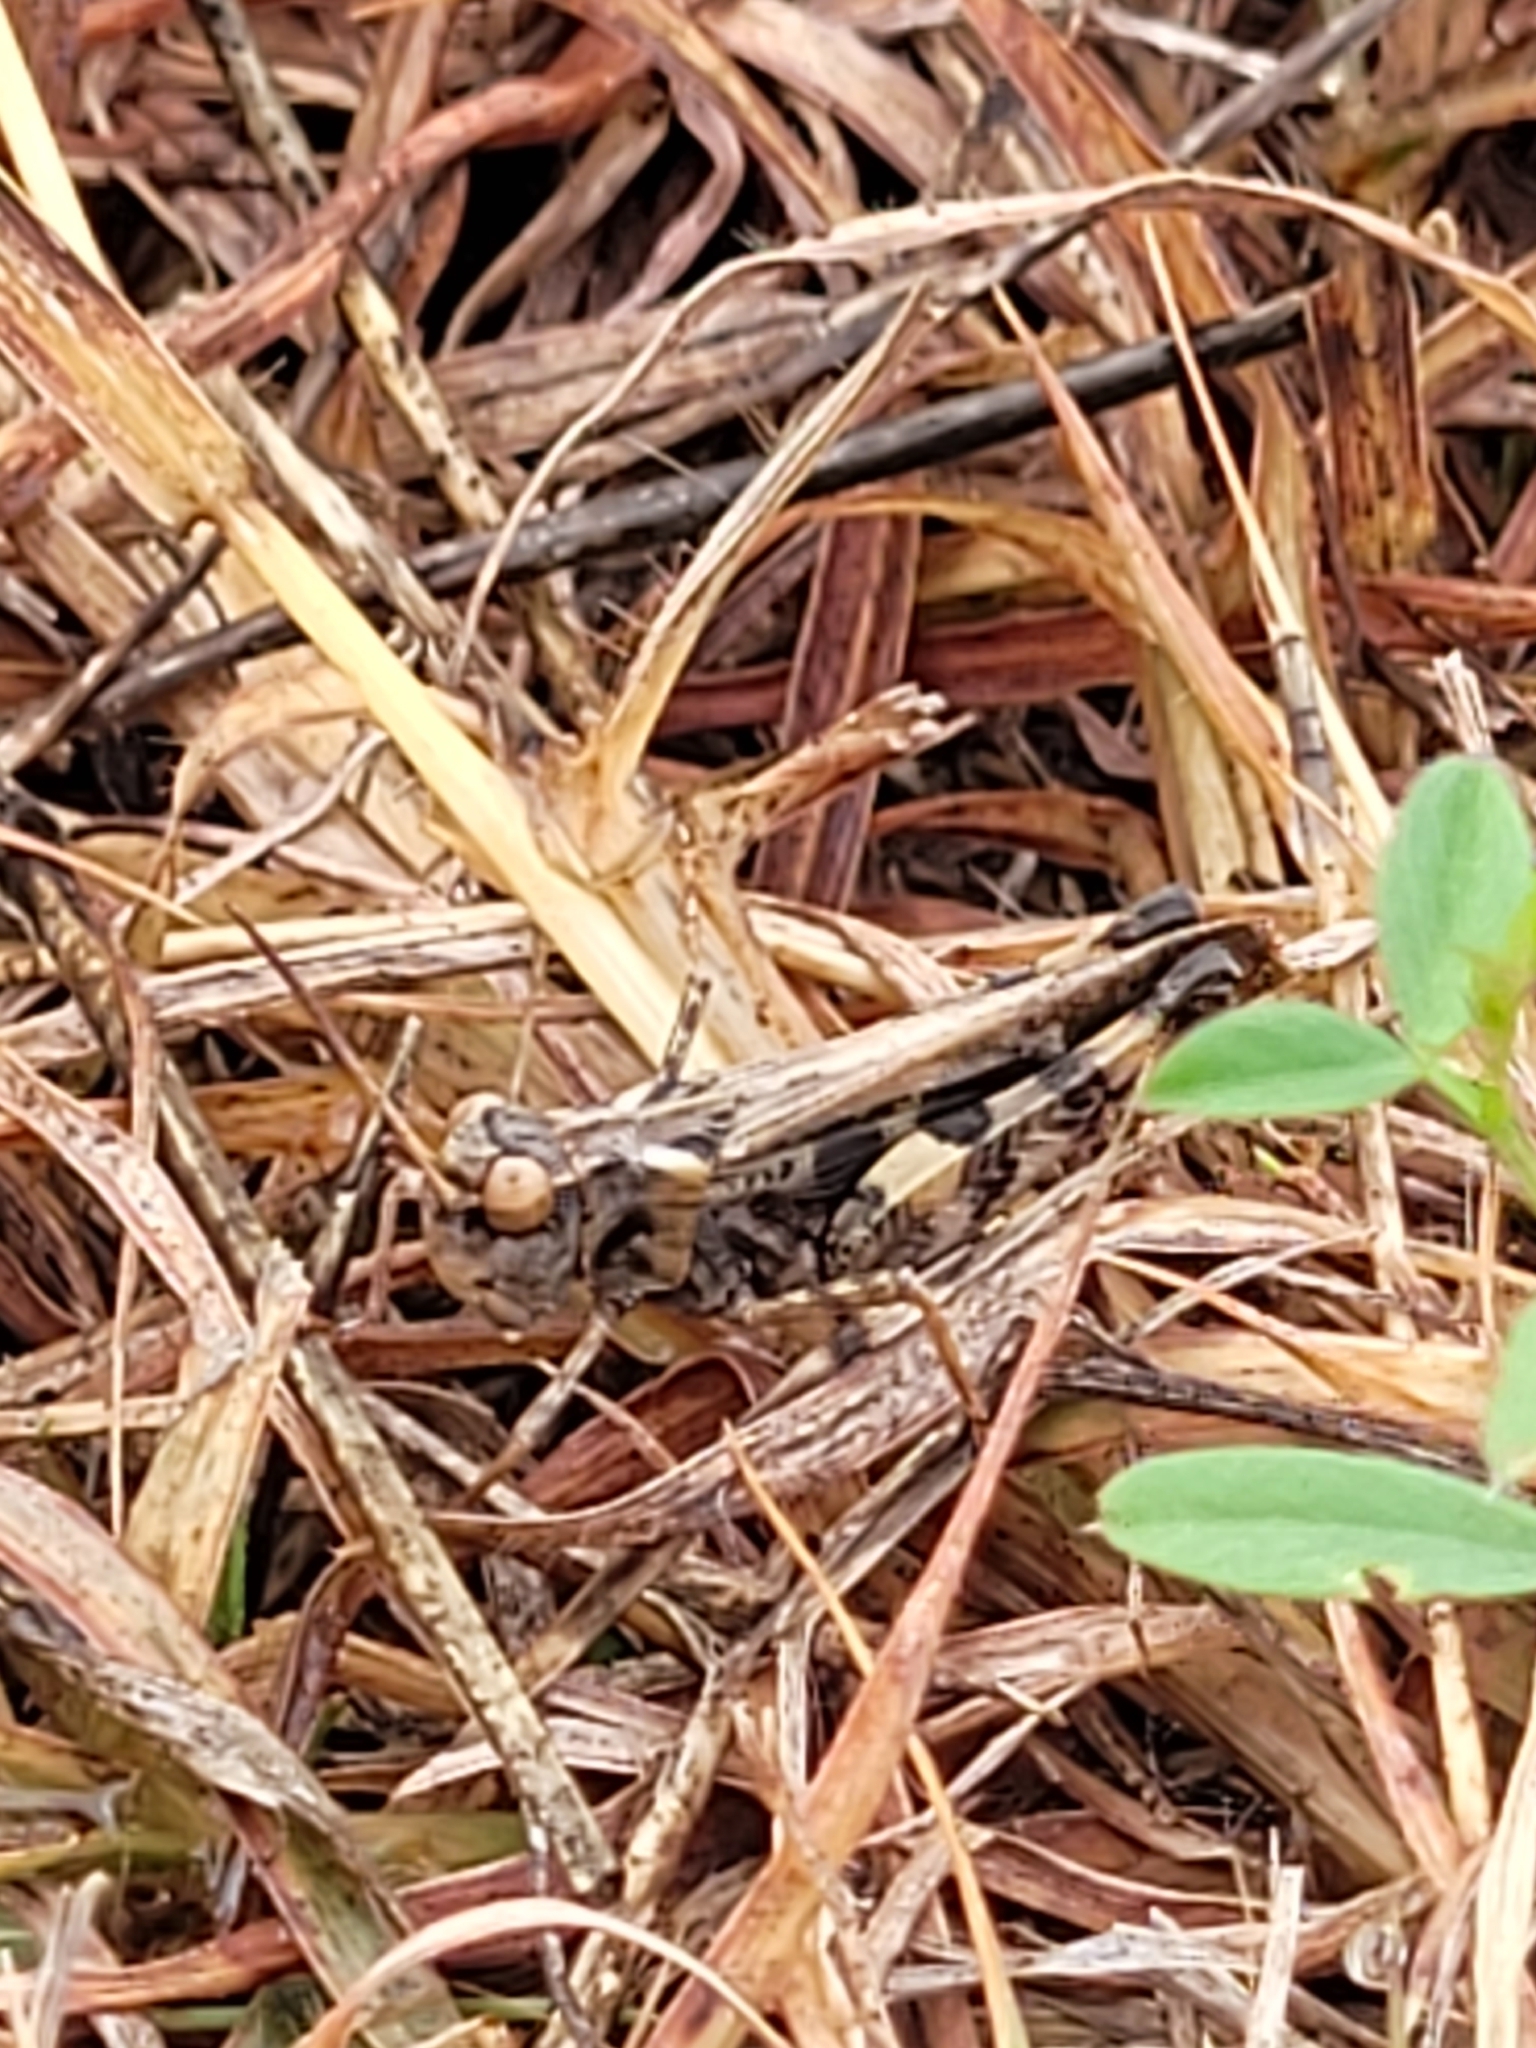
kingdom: Animalia
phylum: Arthropoda
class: Insecta
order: Orthoptera
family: Acrididae
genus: Encoptolophus
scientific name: Encoptolophus costalis
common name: Dusky grasshopper
